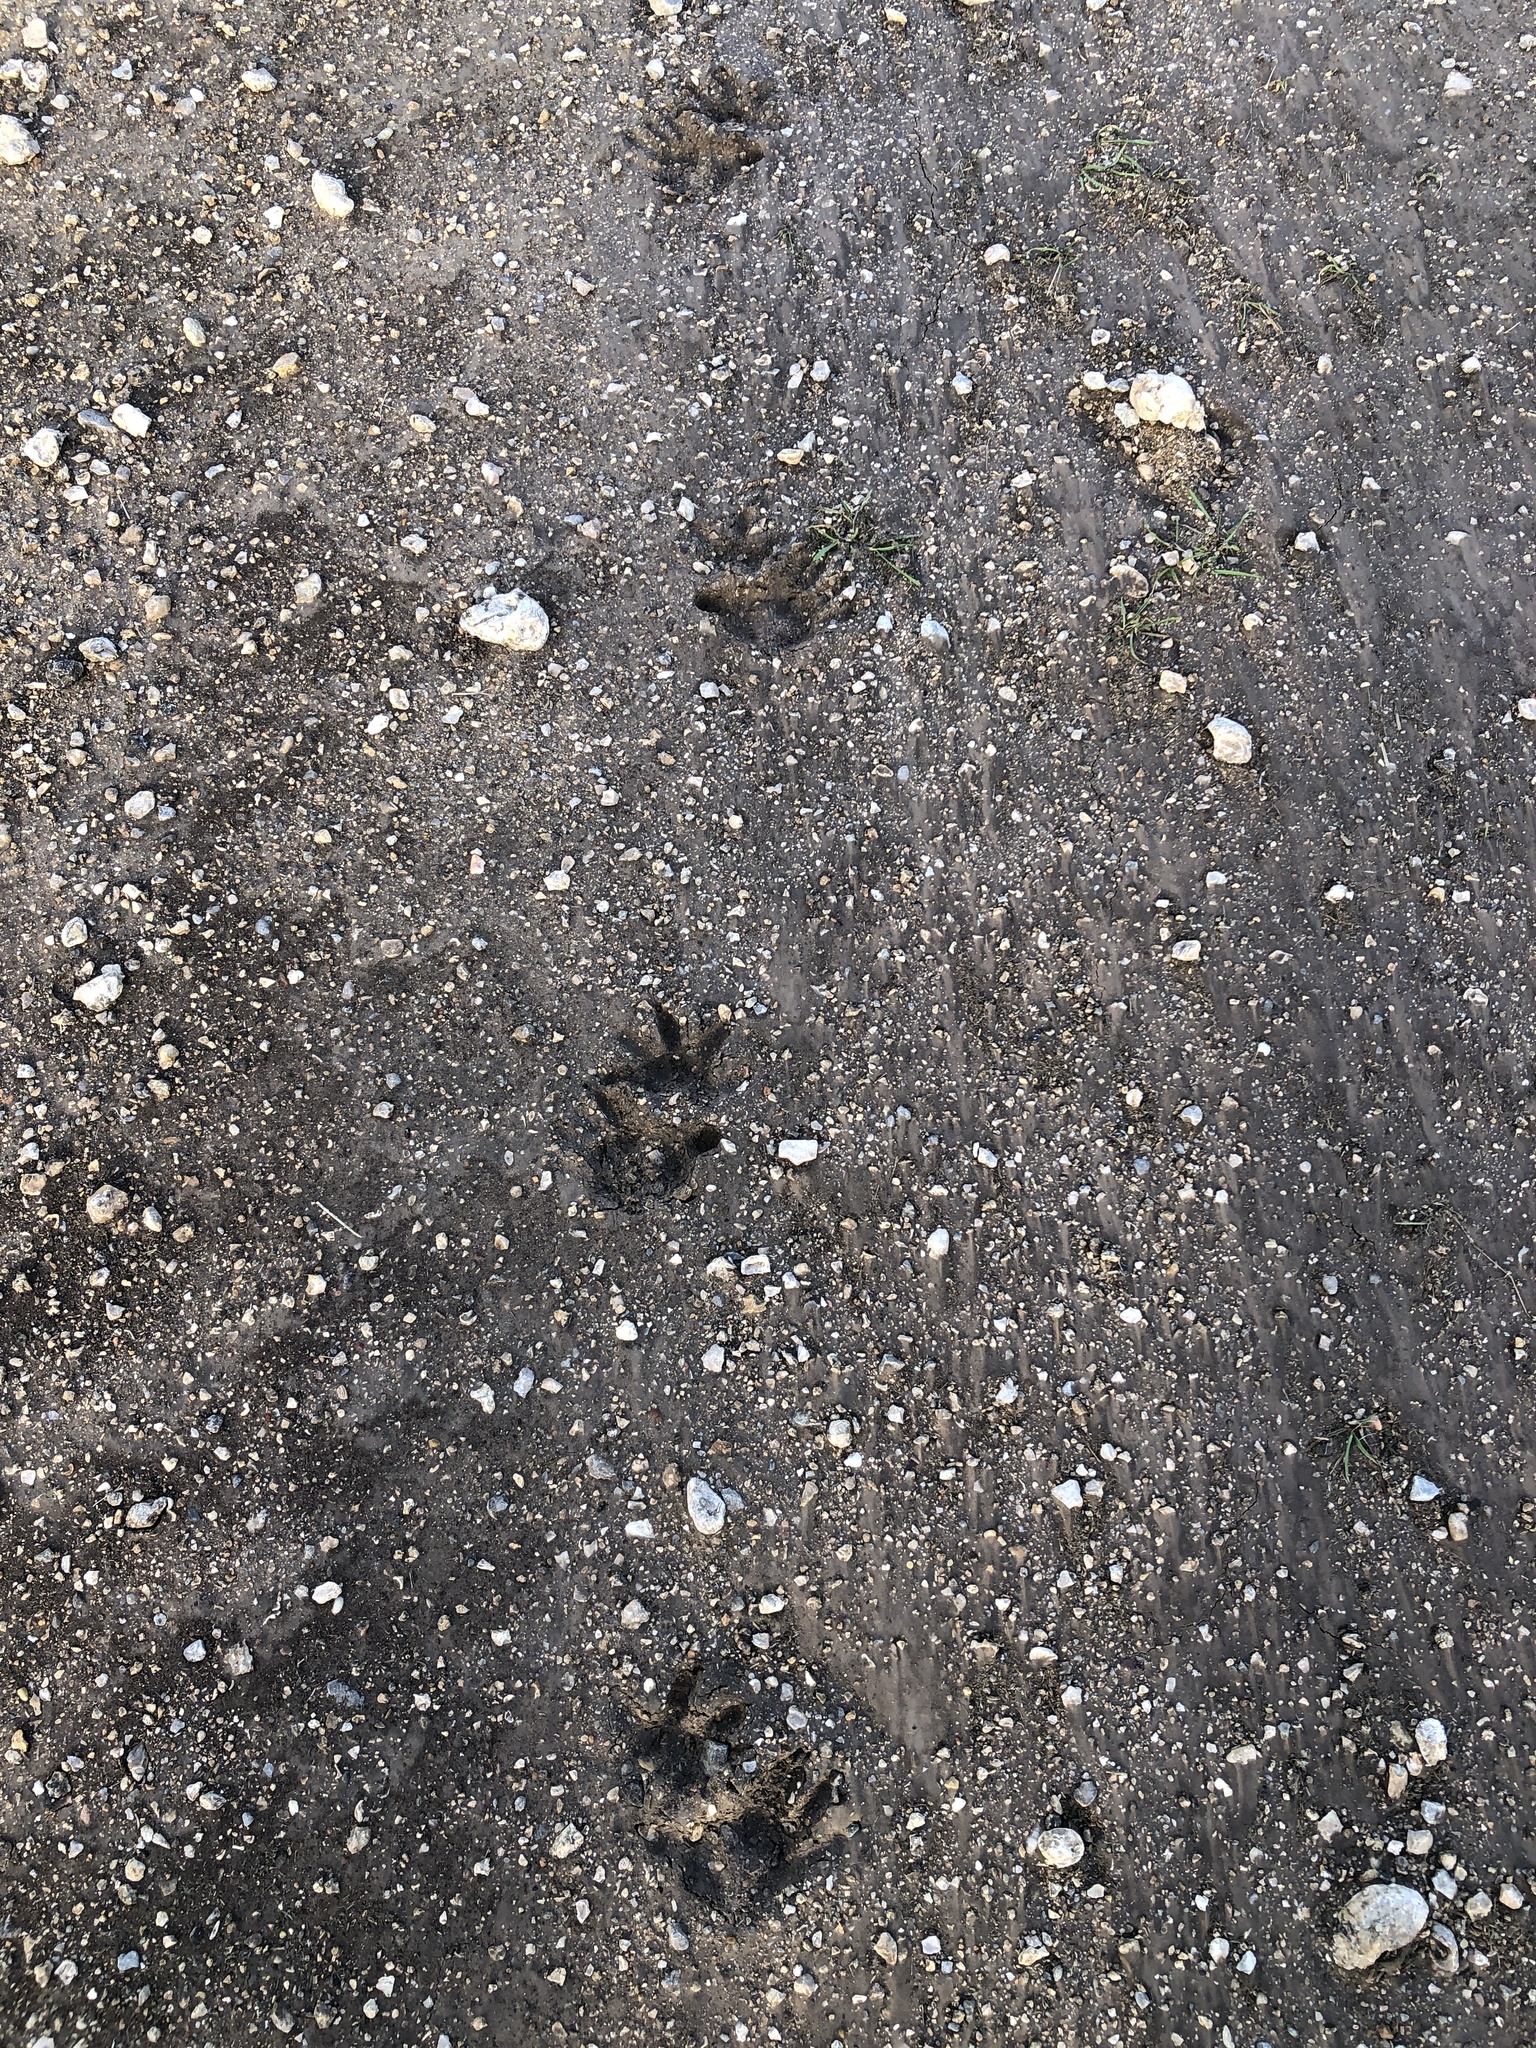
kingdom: Animalia
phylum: Chordata
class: Mammalia
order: Didelphimorphia
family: Didelphidae
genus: Didelphis
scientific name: Didelphis virginiana
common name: Virginia opossum
